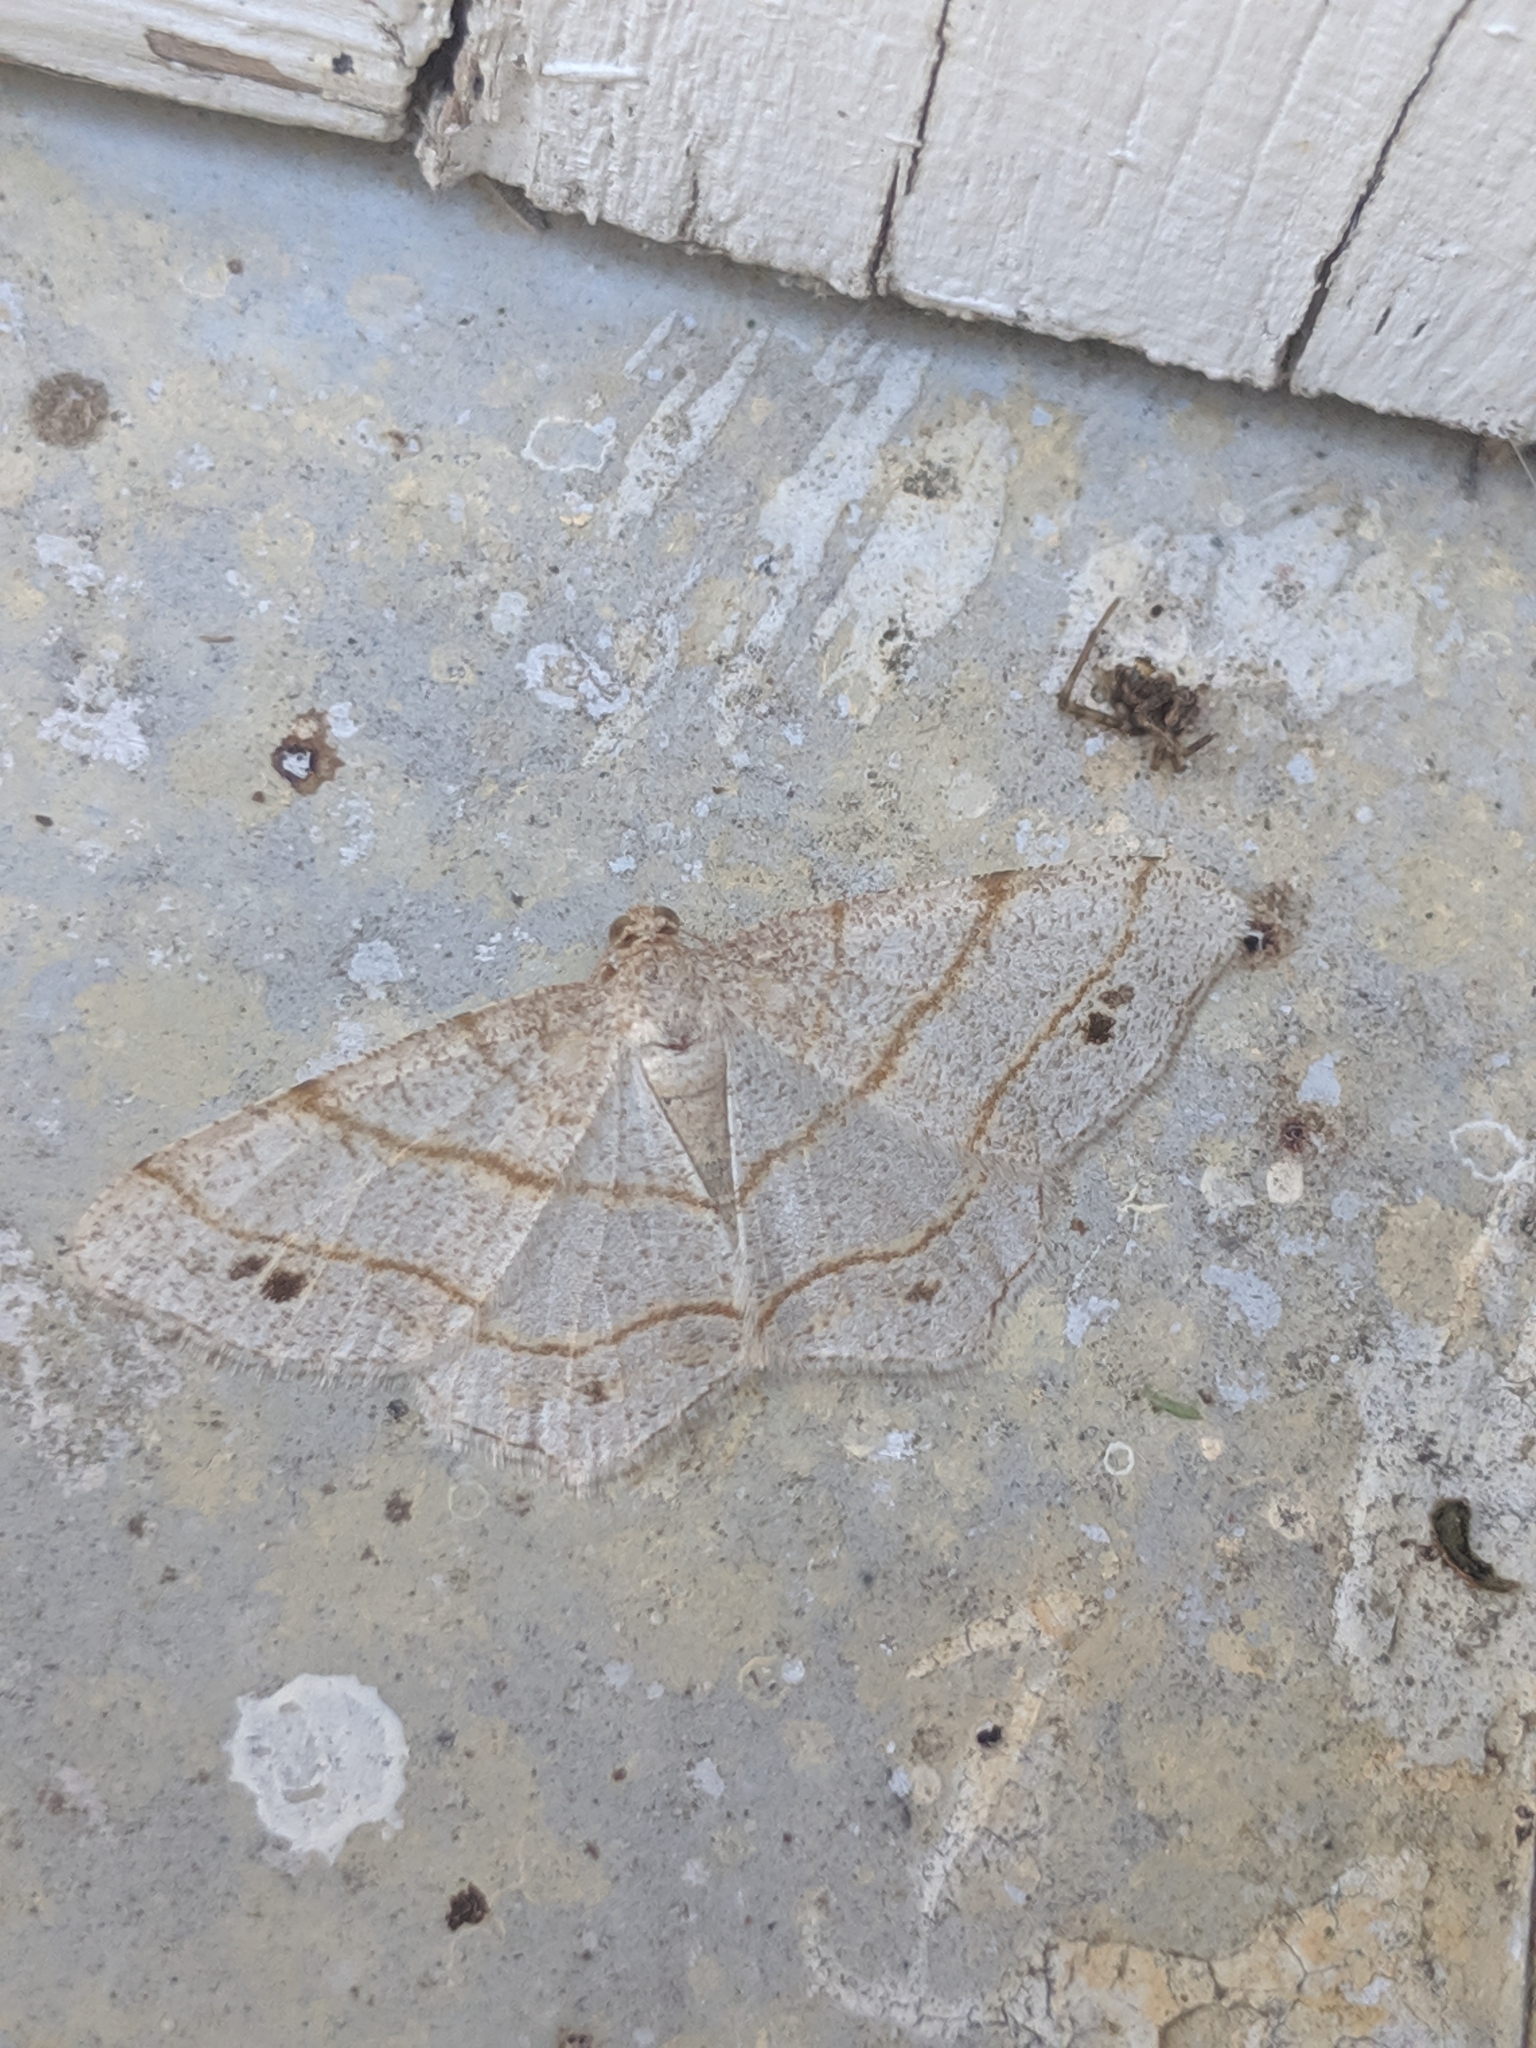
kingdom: Animalia
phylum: Arthropoda
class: Insecta
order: Lepidoptera
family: Geometridae
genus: Trigrammia
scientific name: Trigrammia quadrinotaria
